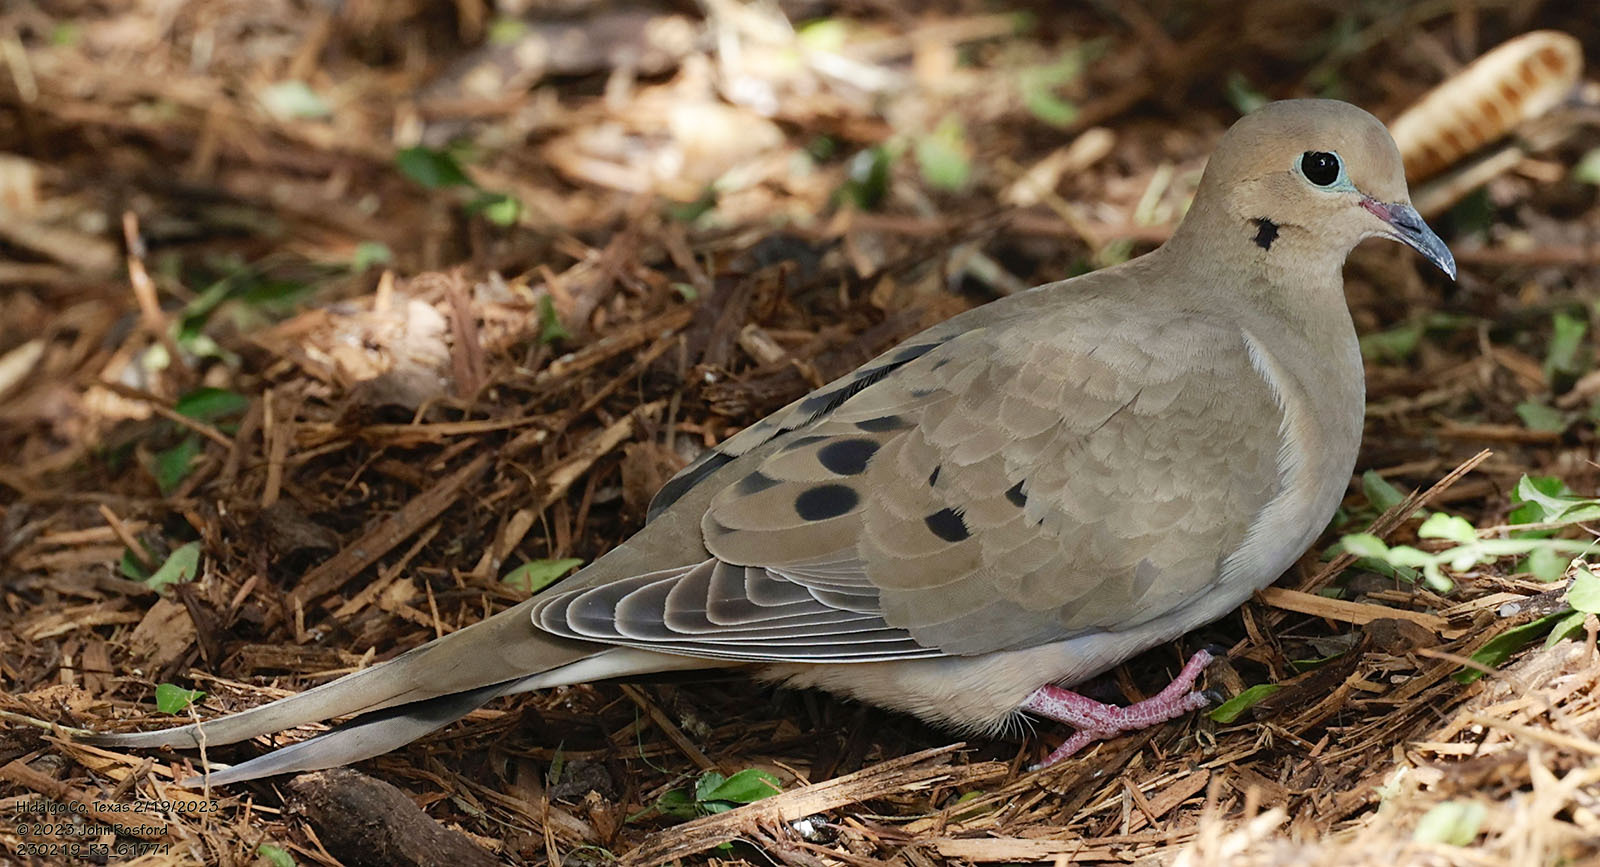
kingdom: Animalia
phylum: Chordata
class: Aves
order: Columbiformes
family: Columbidae
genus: Zenaida
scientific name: Zenaida macroura
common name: Mourning dove
